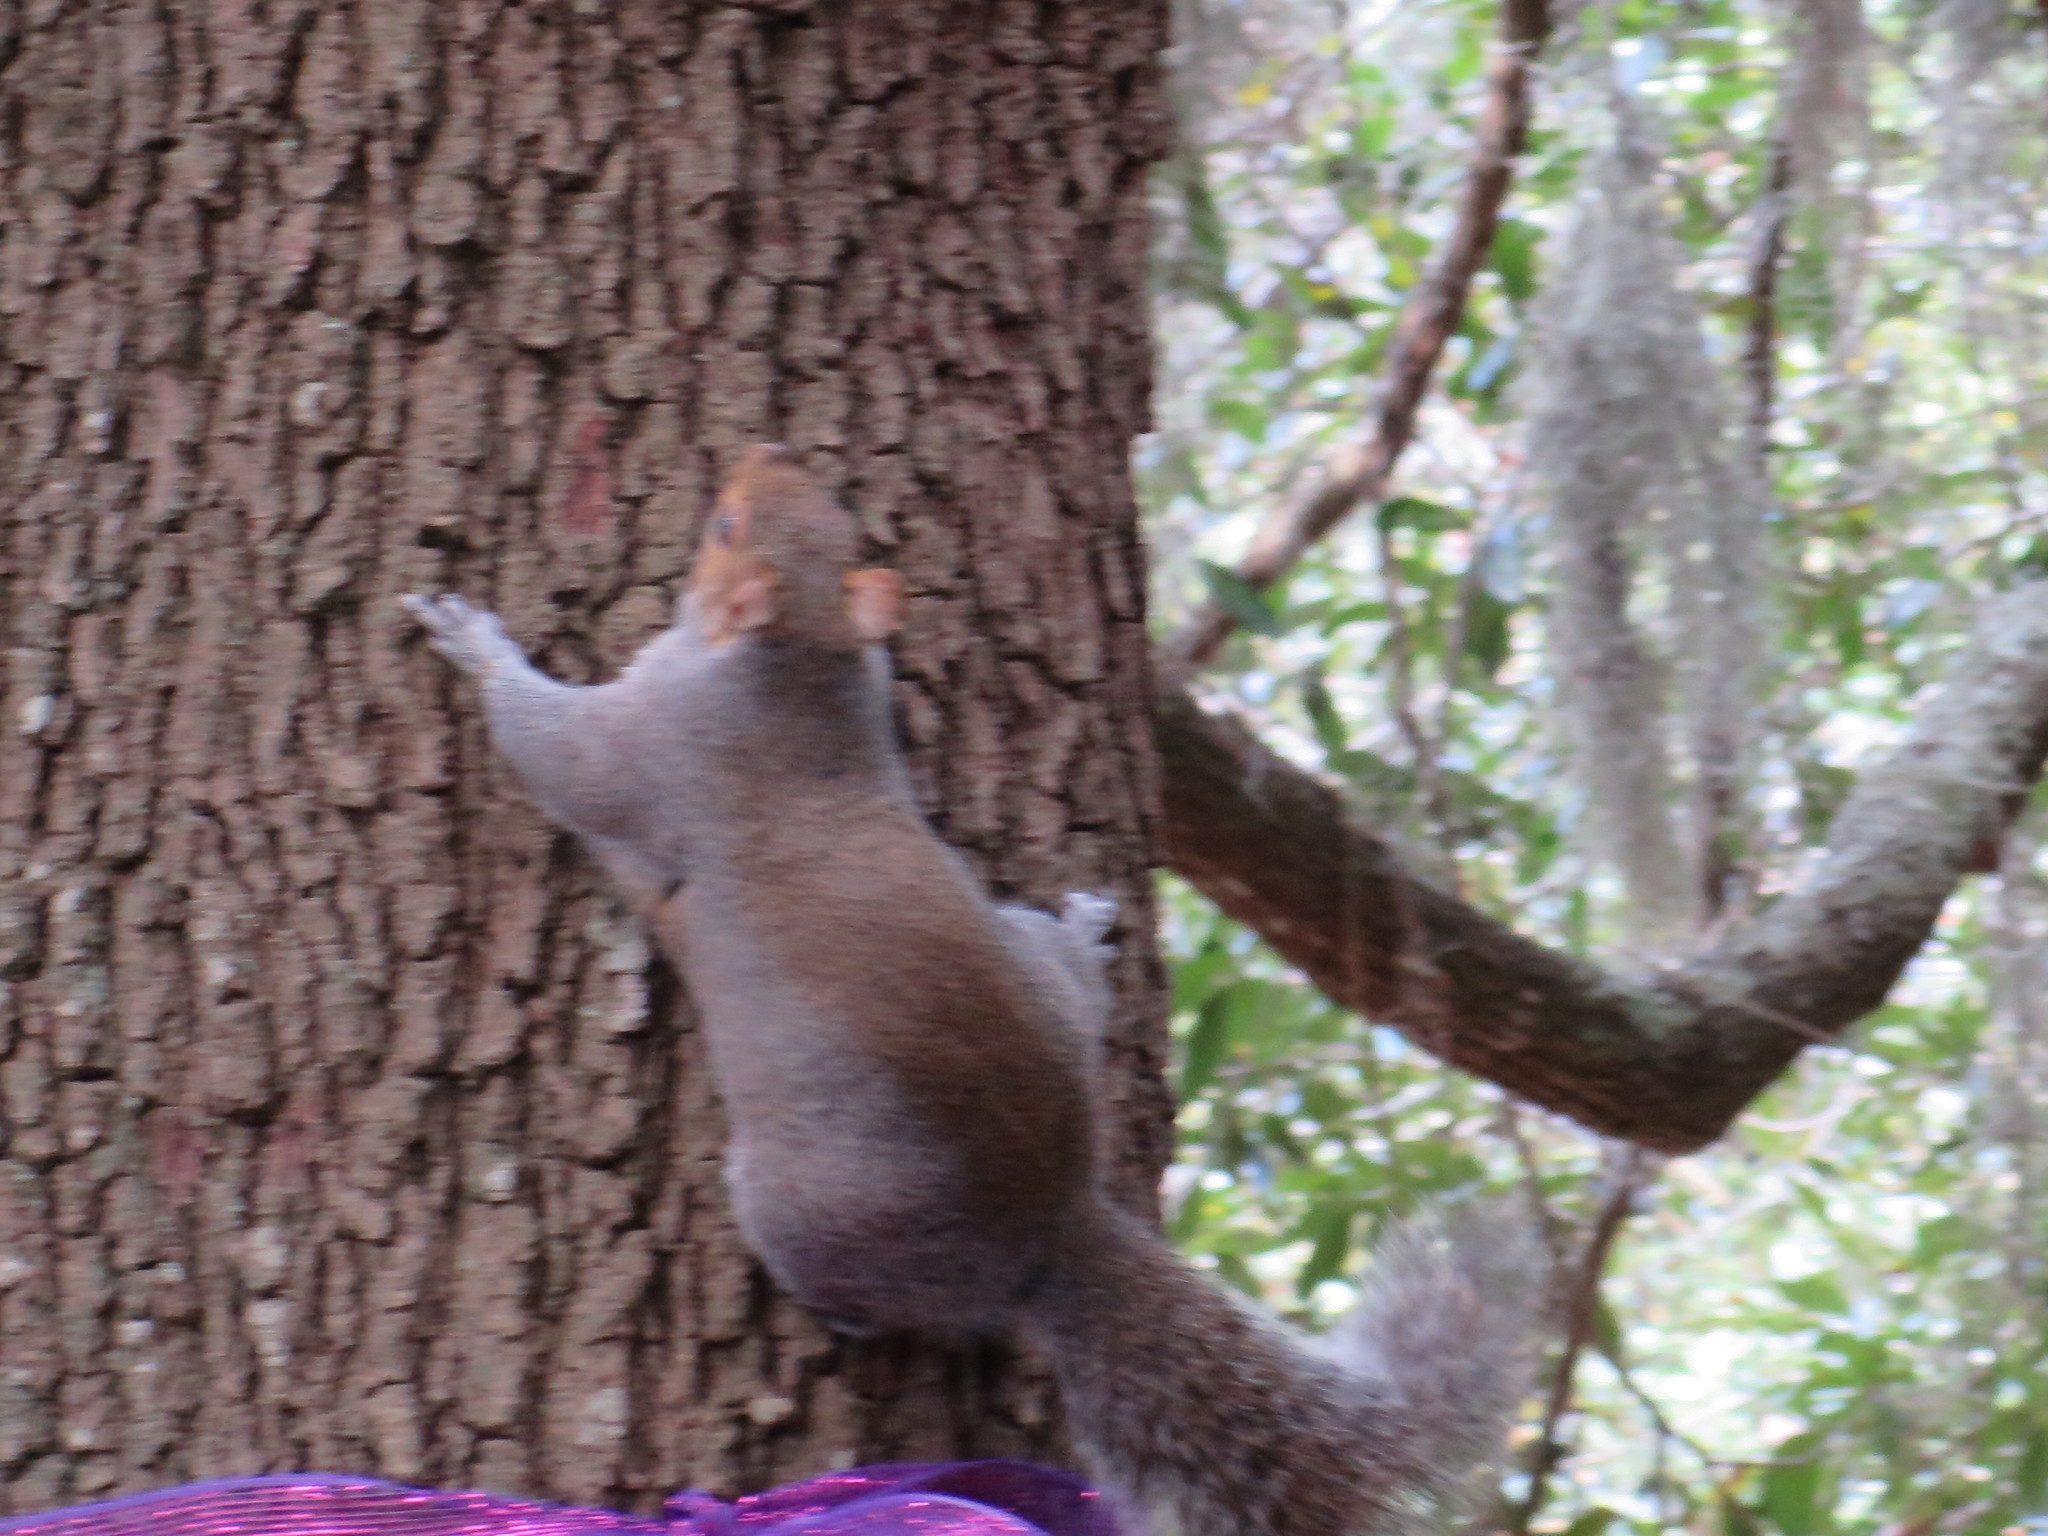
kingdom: Animalia
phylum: Chordata
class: Mammalia
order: Rodentia
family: Sciuridae
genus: Sciurus
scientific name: Sciurus carolinensis
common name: Eastern gray squirrel
